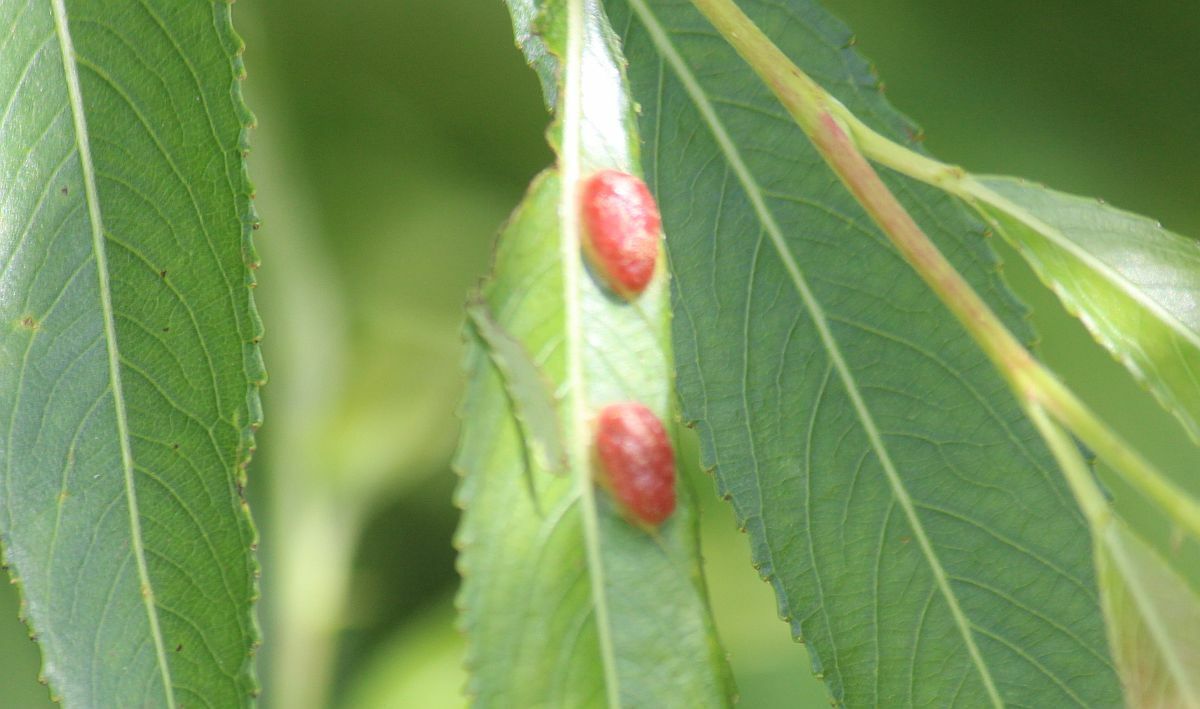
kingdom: Animalia
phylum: Arthropoda
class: Insecta
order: Hymenoptera
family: Tenthredinidae
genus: Pontania
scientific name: Pontania proxima
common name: Common sawfly
